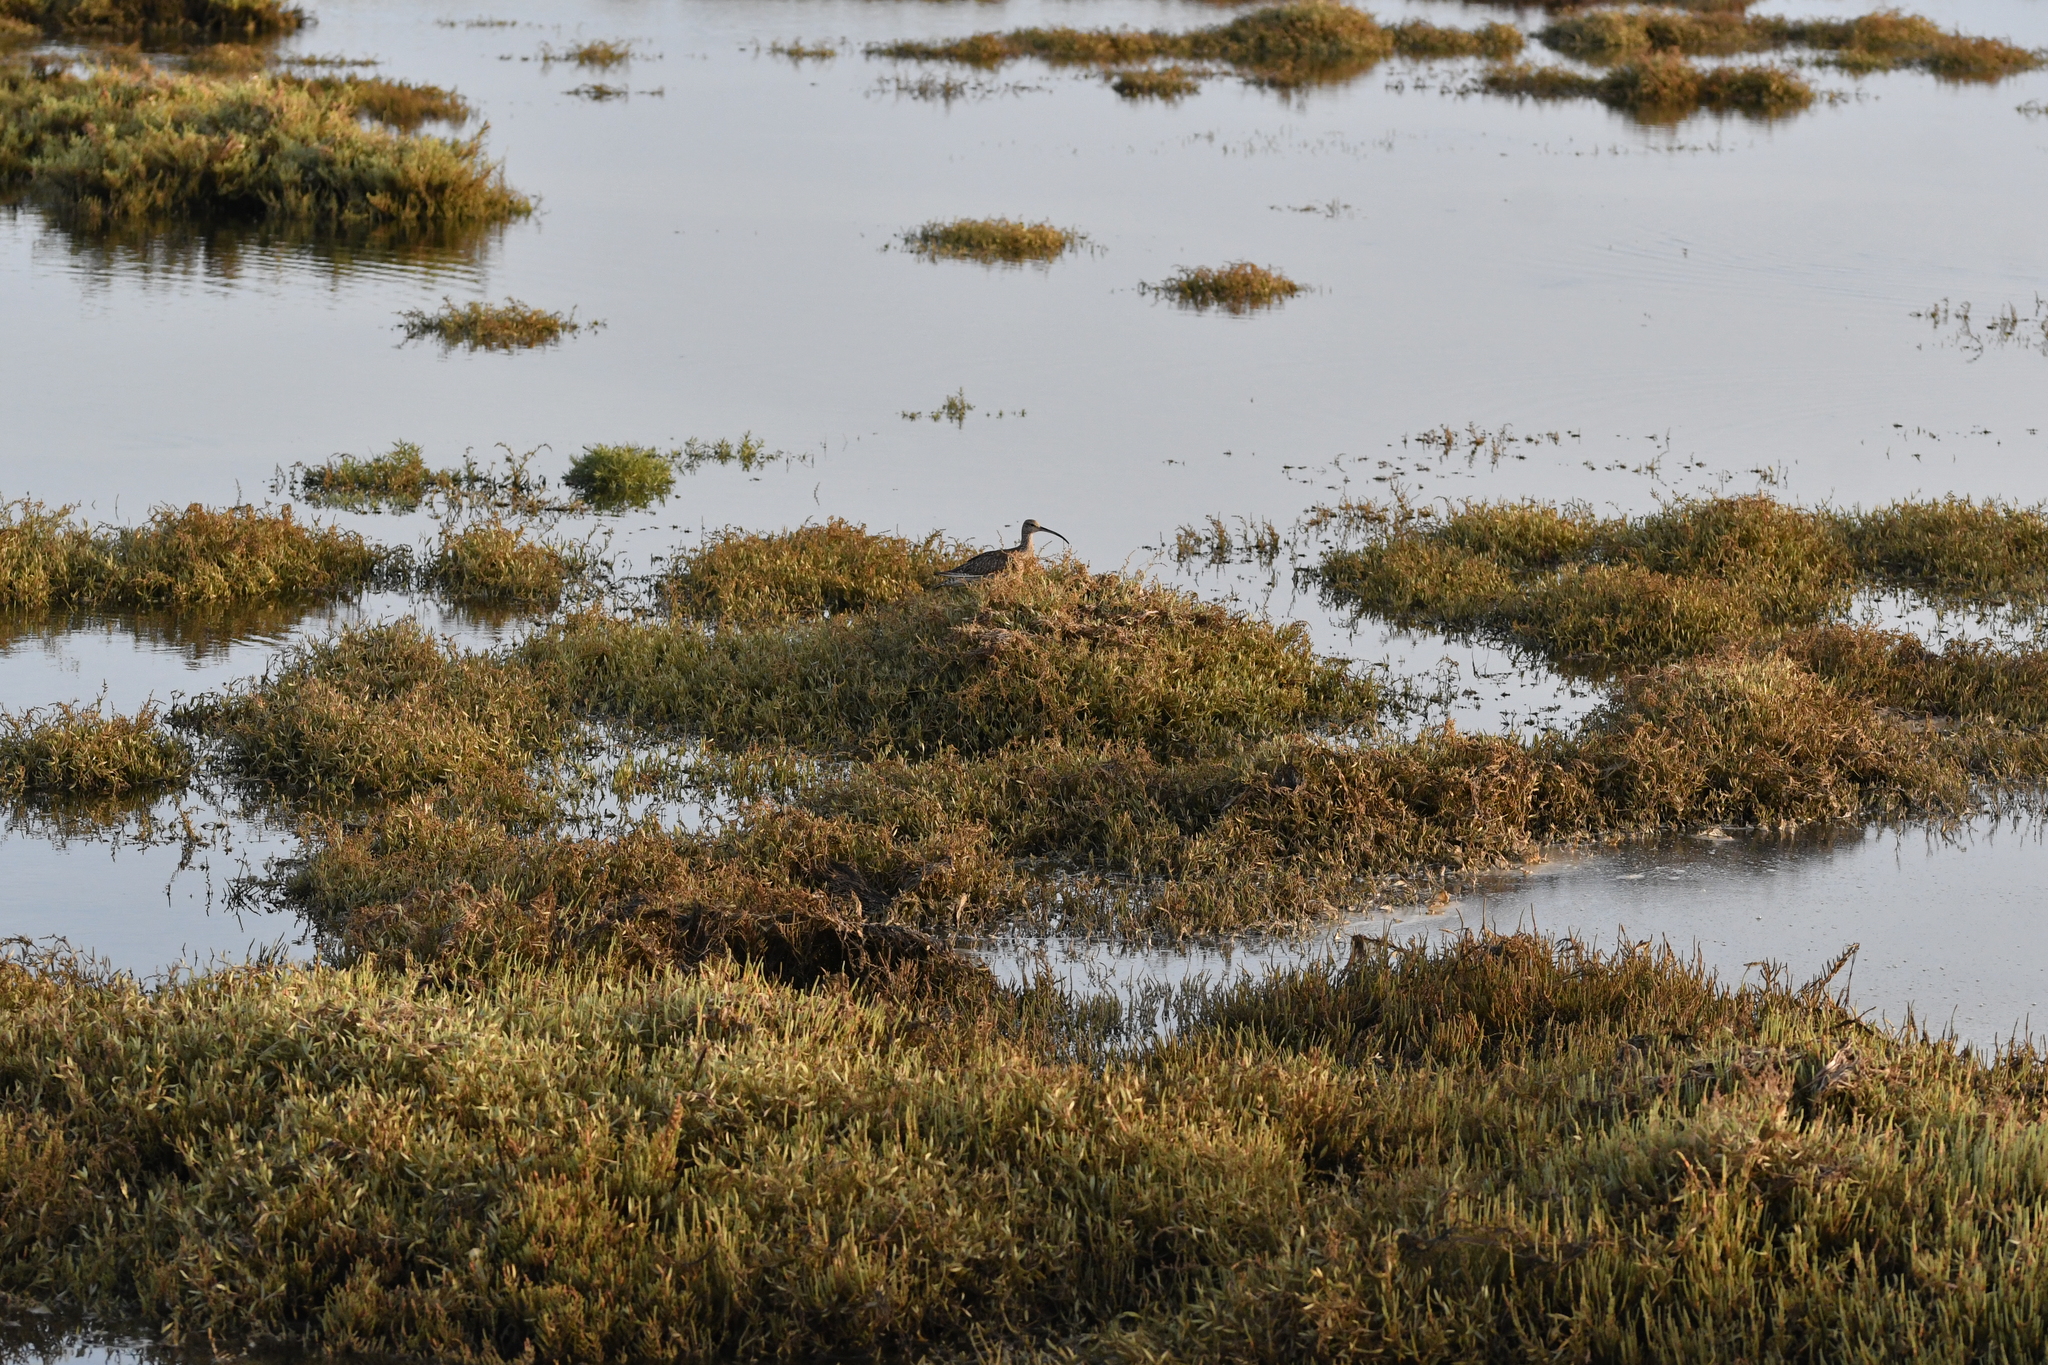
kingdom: Animalia
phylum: Chordata
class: Aves
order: Charadriiformes
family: Scolopacidae
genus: Numenius
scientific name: Numenius phaeopus
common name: Whimbrel
